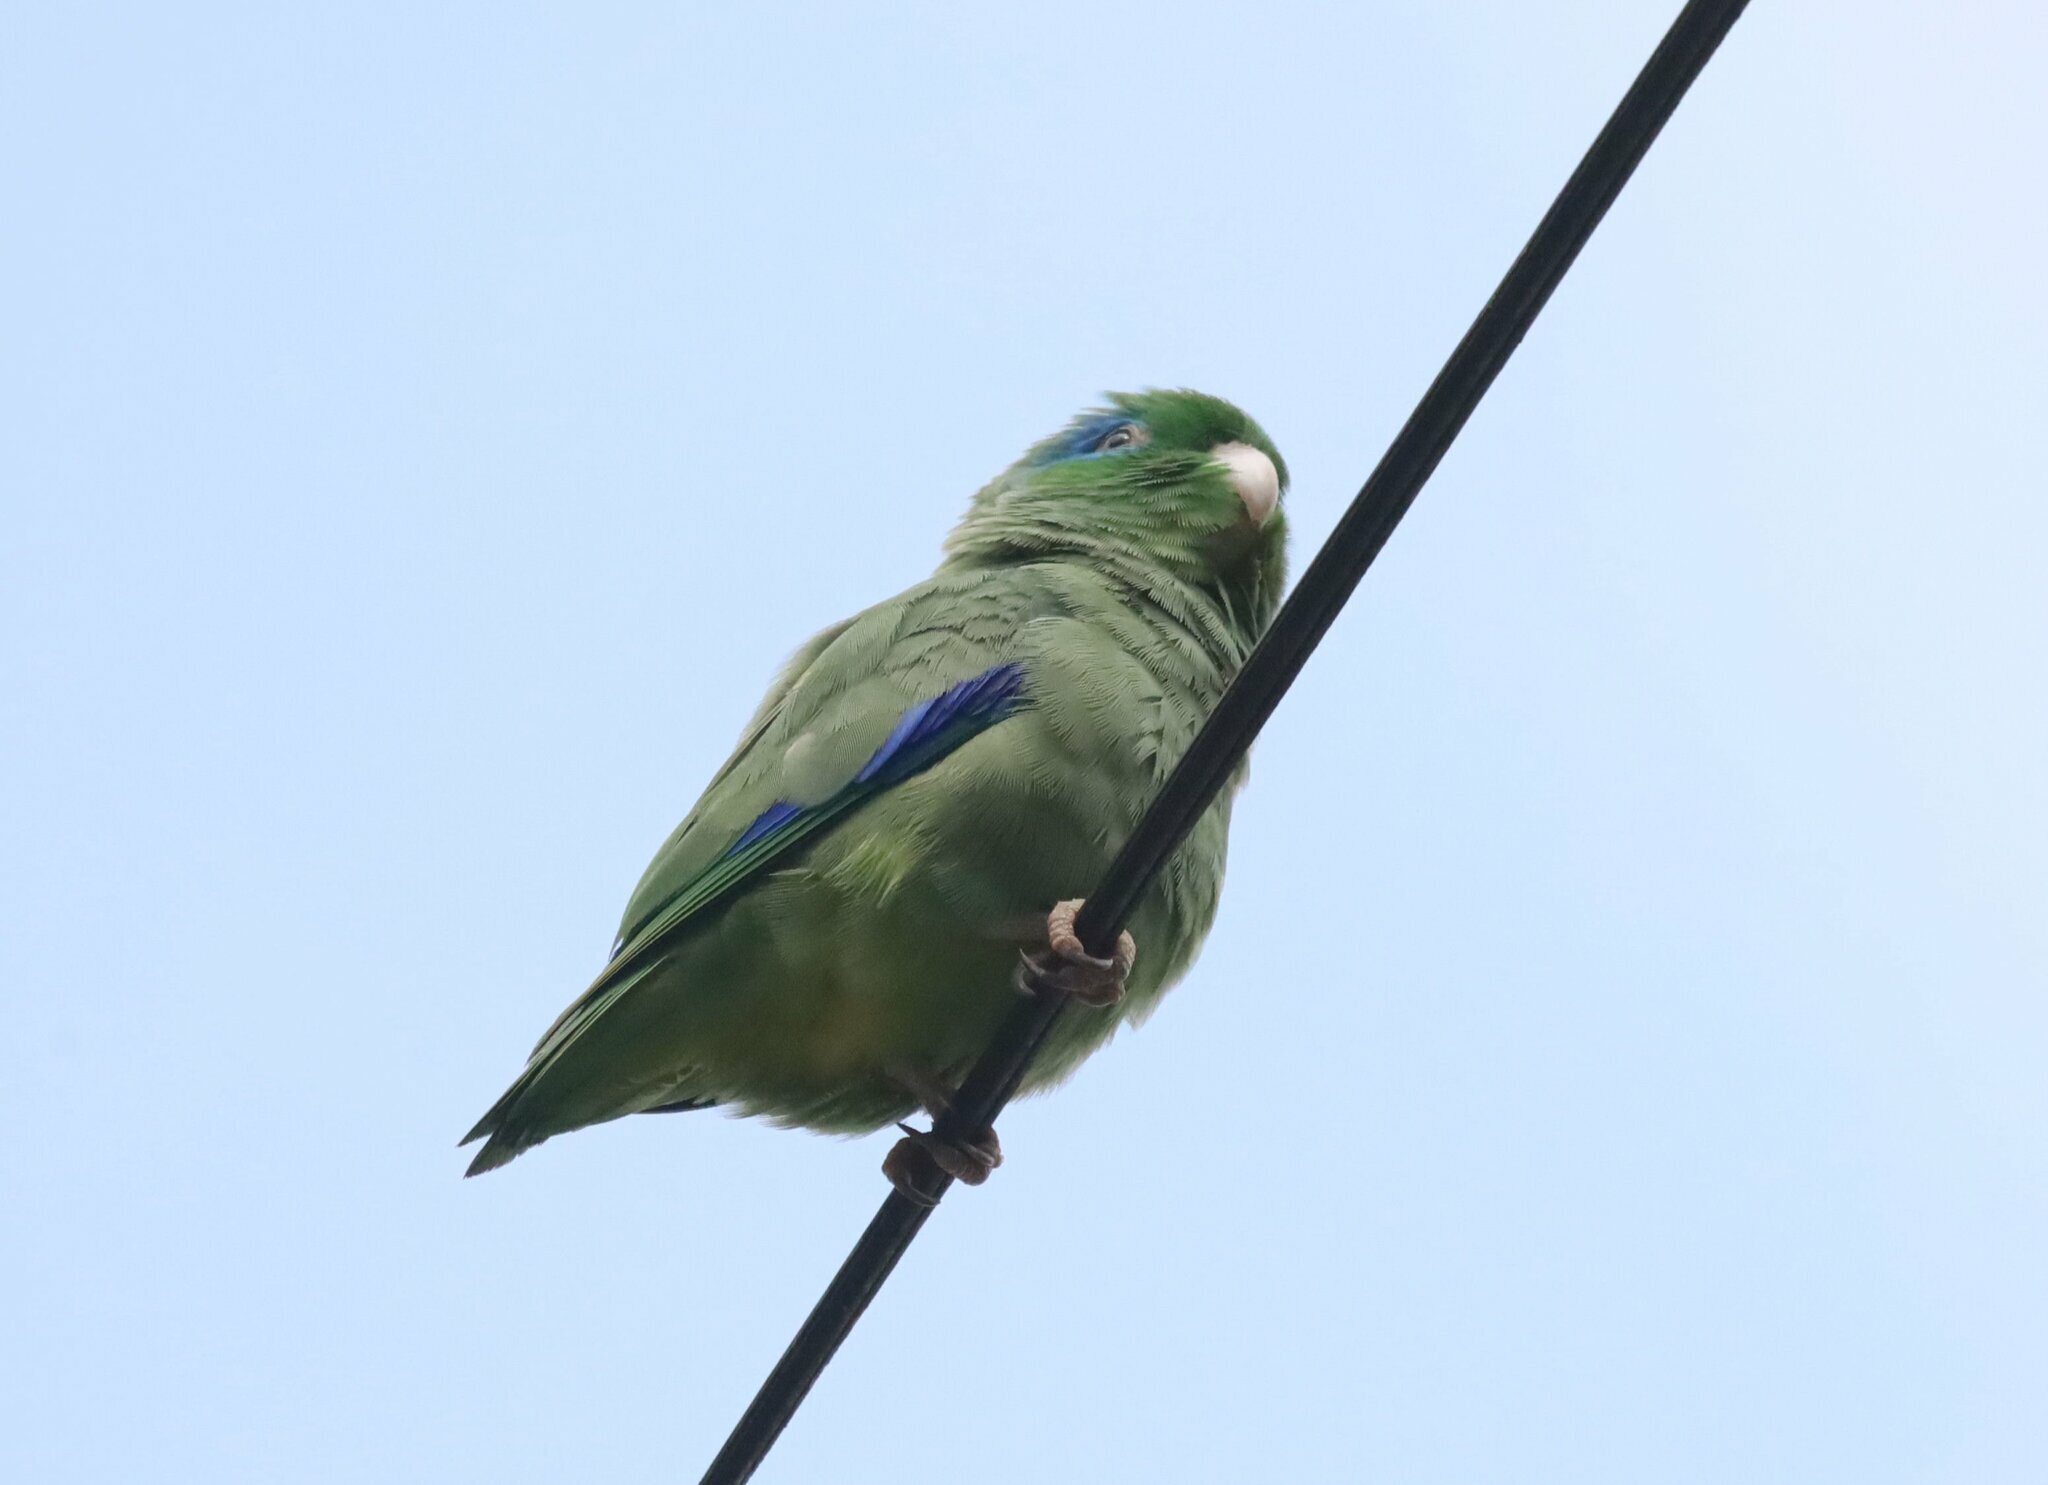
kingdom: Animalia
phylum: Chordata
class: Aves
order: Psittaciformes
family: Psittacidae
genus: Forpus
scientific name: Forpus conspicillatus
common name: Spectacled parrotlet
